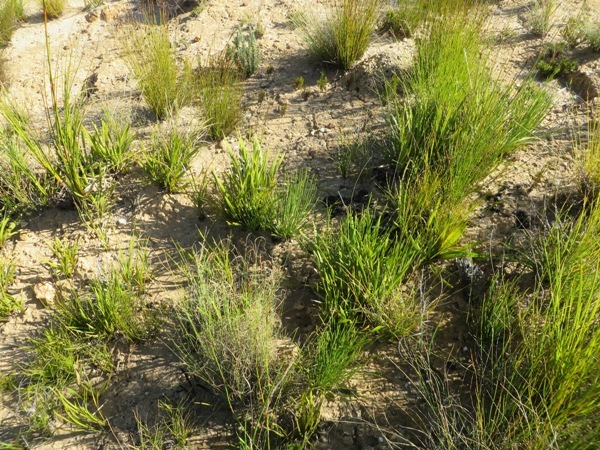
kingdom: Plantae
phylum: Tracheophyta
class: Magnoliopsida
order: Proteales
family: Proteaceae
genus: Protea
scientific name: Protea lorea
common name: Thong-leaf sugarbush
